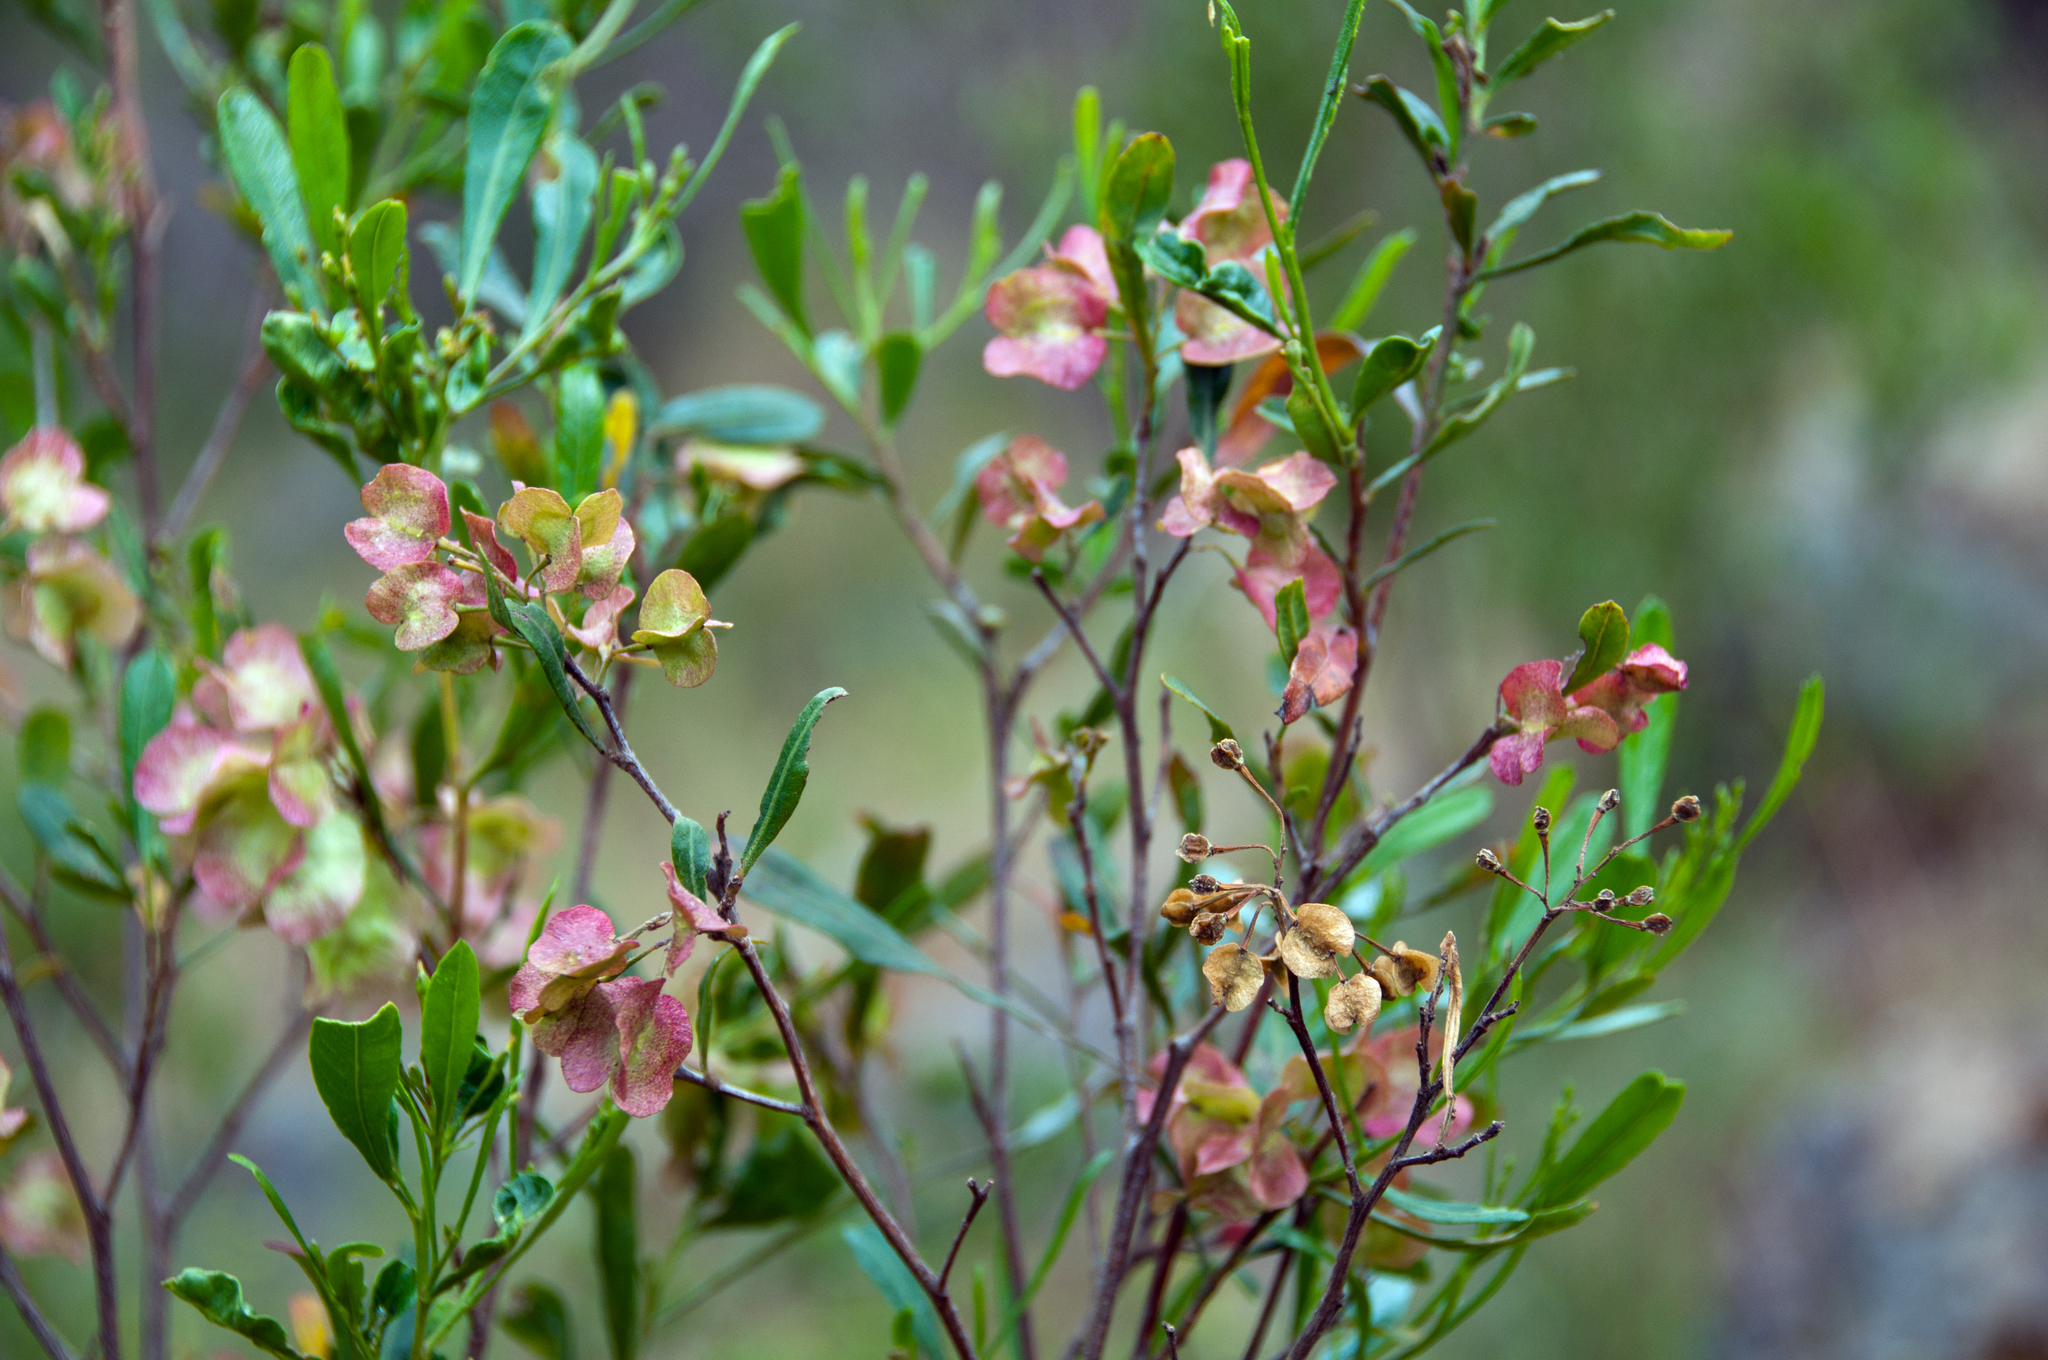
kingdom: Plantae
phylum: Tracheophyta
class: Magnoliopsida
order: Sapindales
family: Sapindaceae
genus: Dodonaea
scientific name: Dodonaea viscosa
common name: Hopbush
